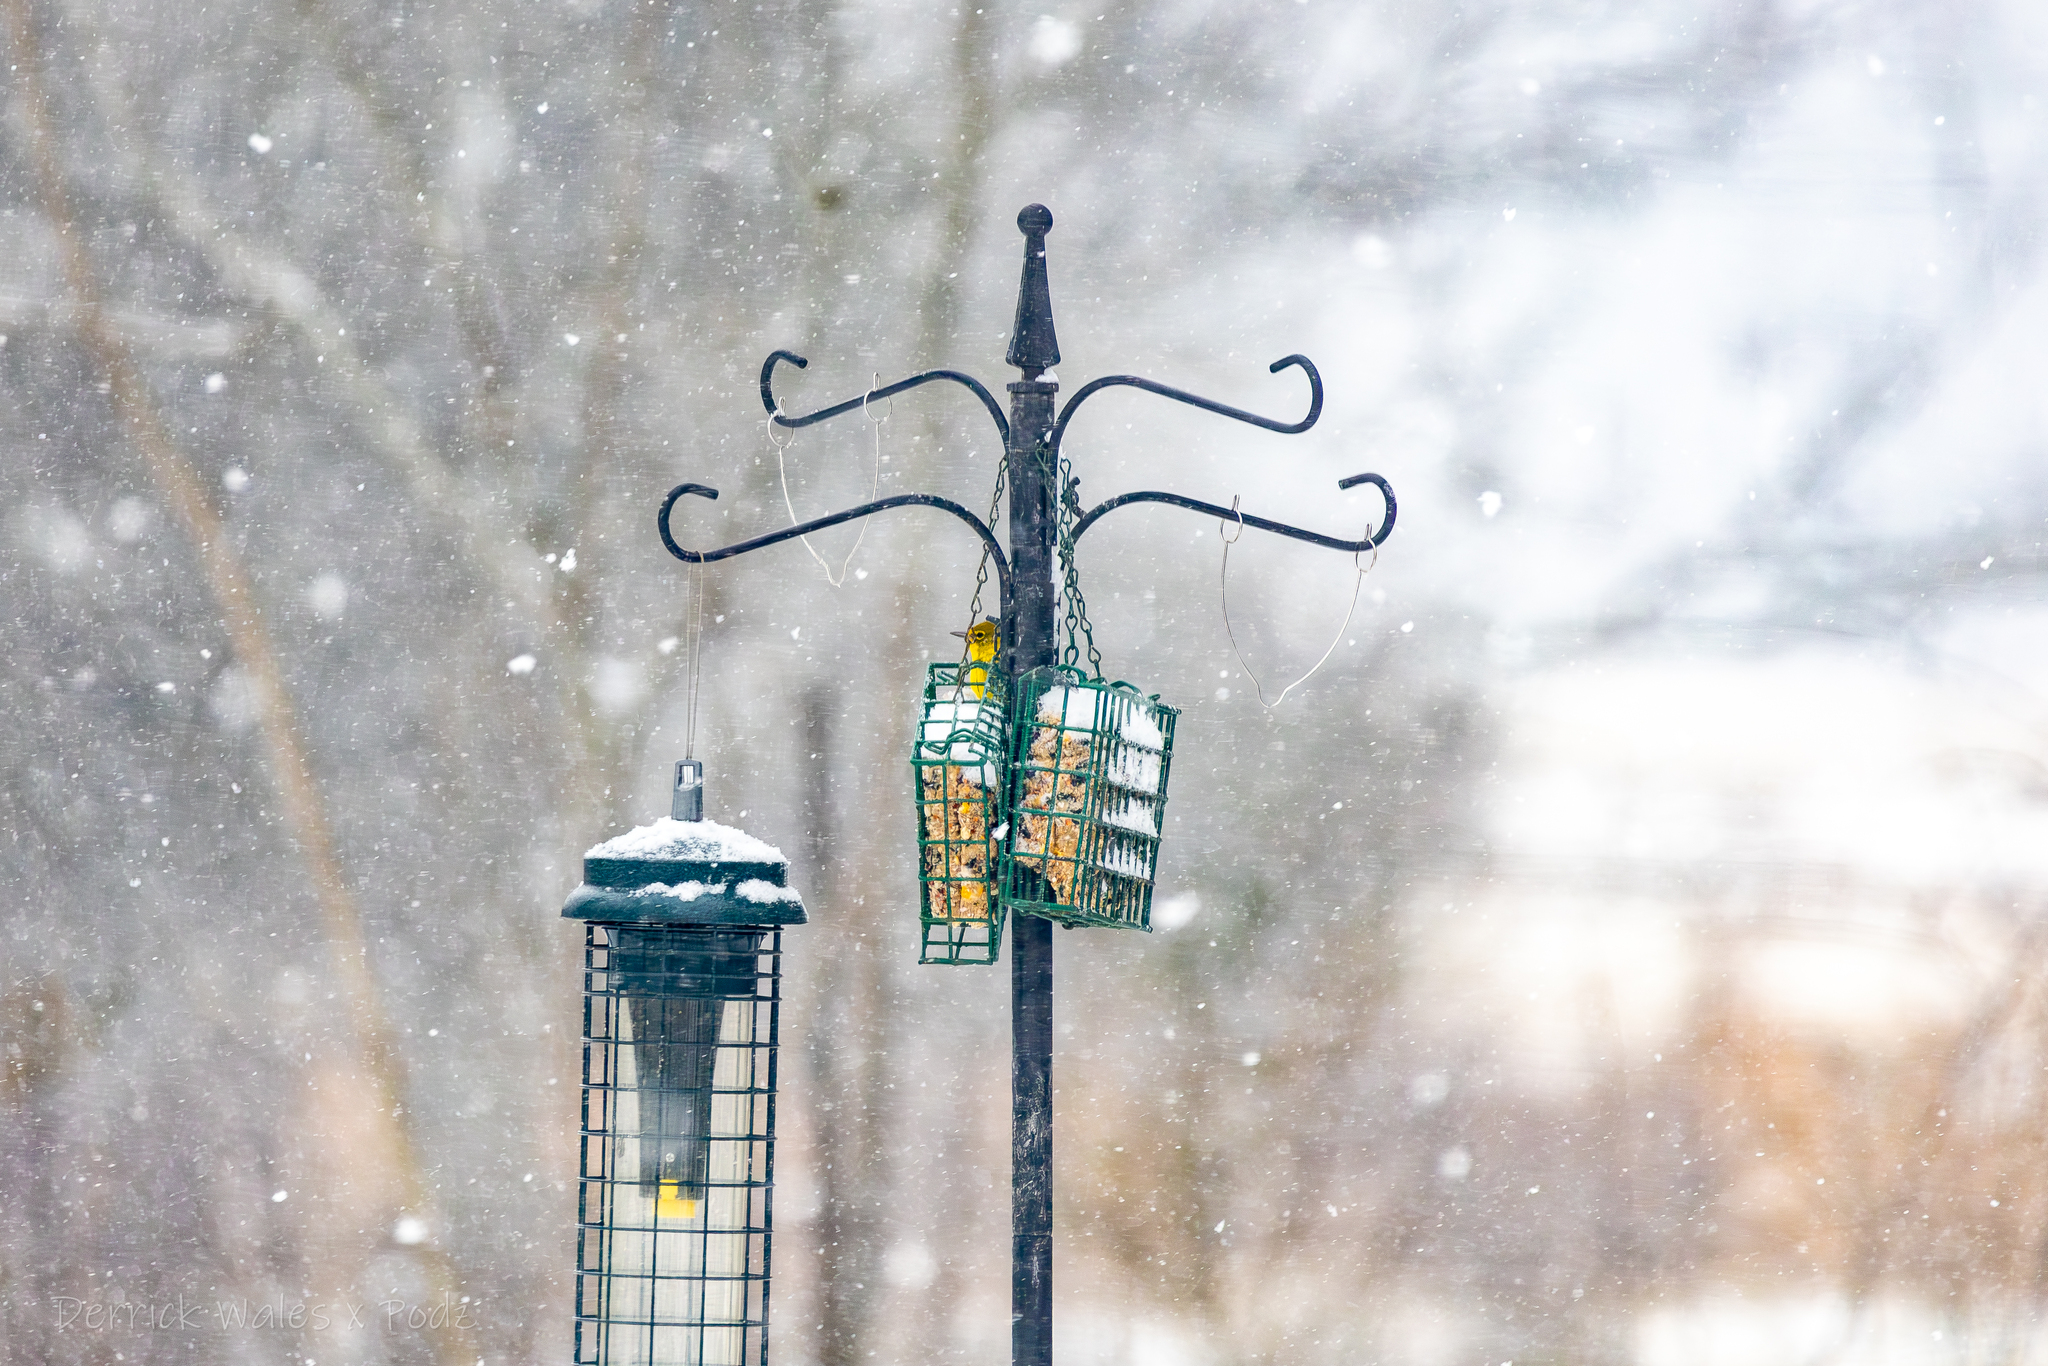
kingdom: Animalia
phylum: Chordata
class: Aves
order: Passeriformes
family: Parulidae
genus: Setophaga
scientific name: Setophaga pinus
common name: Pine warbler
